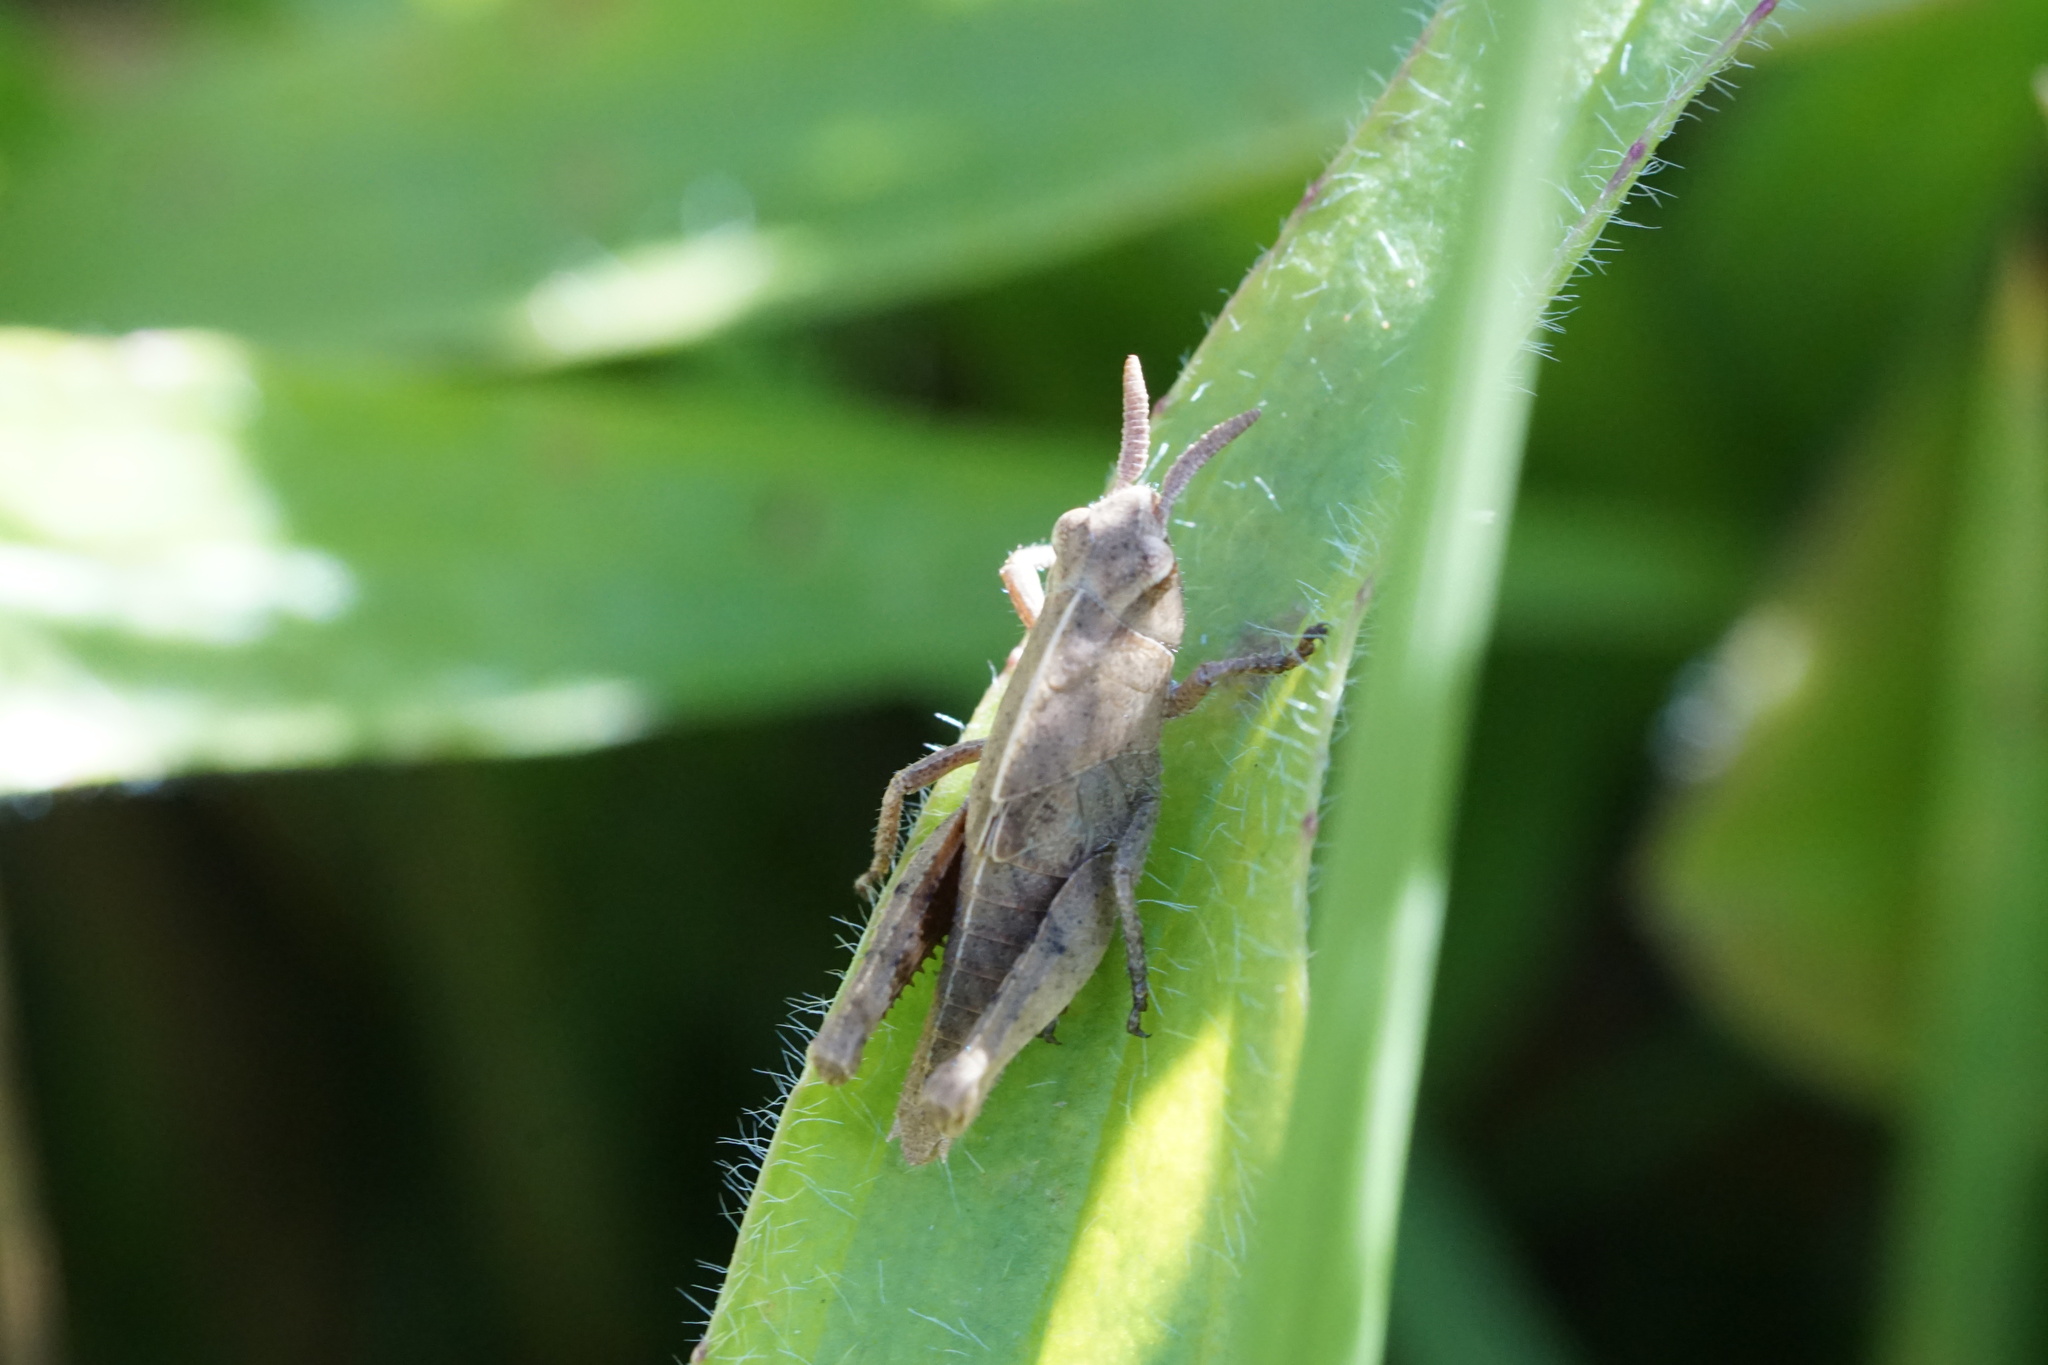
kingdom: Animalia
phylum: Arthropoda
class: Insecta
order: Orthoptera
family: Acrididae
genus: Chortophaga
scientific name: Chortophaga viridifasciata
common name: Green-striped grasshopper
